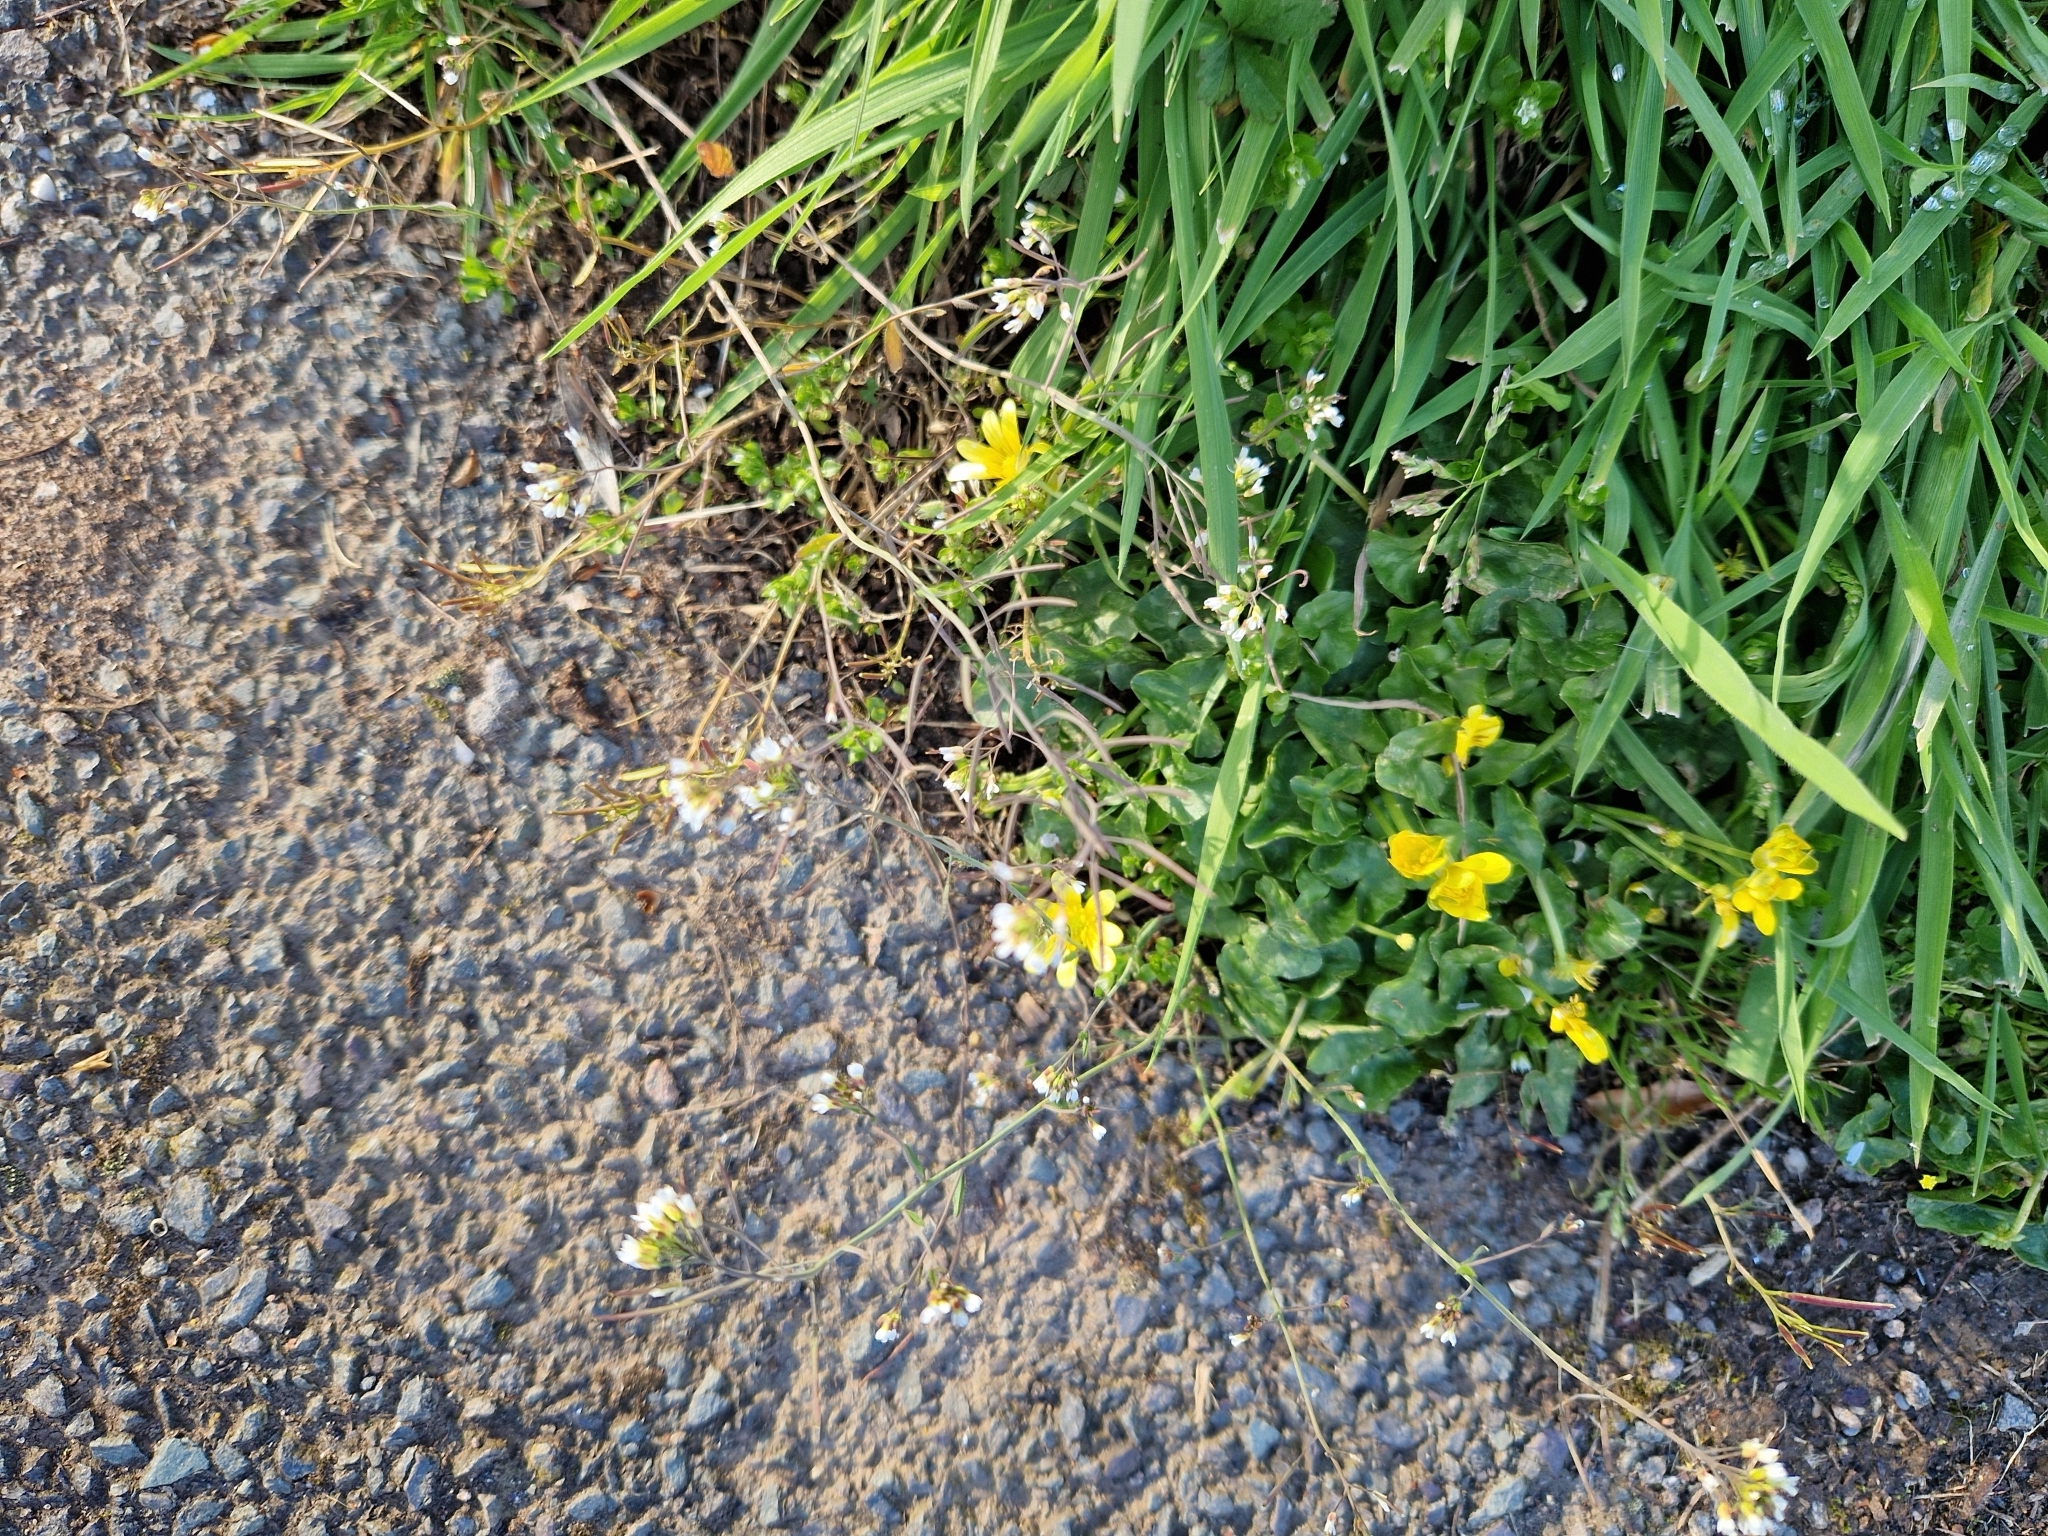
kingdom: Plantae
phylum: Tracheophyta
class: Magnoliopsida
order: Brassicales
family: Brassicaceae
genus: Arabidopsis
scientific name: Arabidopsis thaliana
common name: Thale cress
